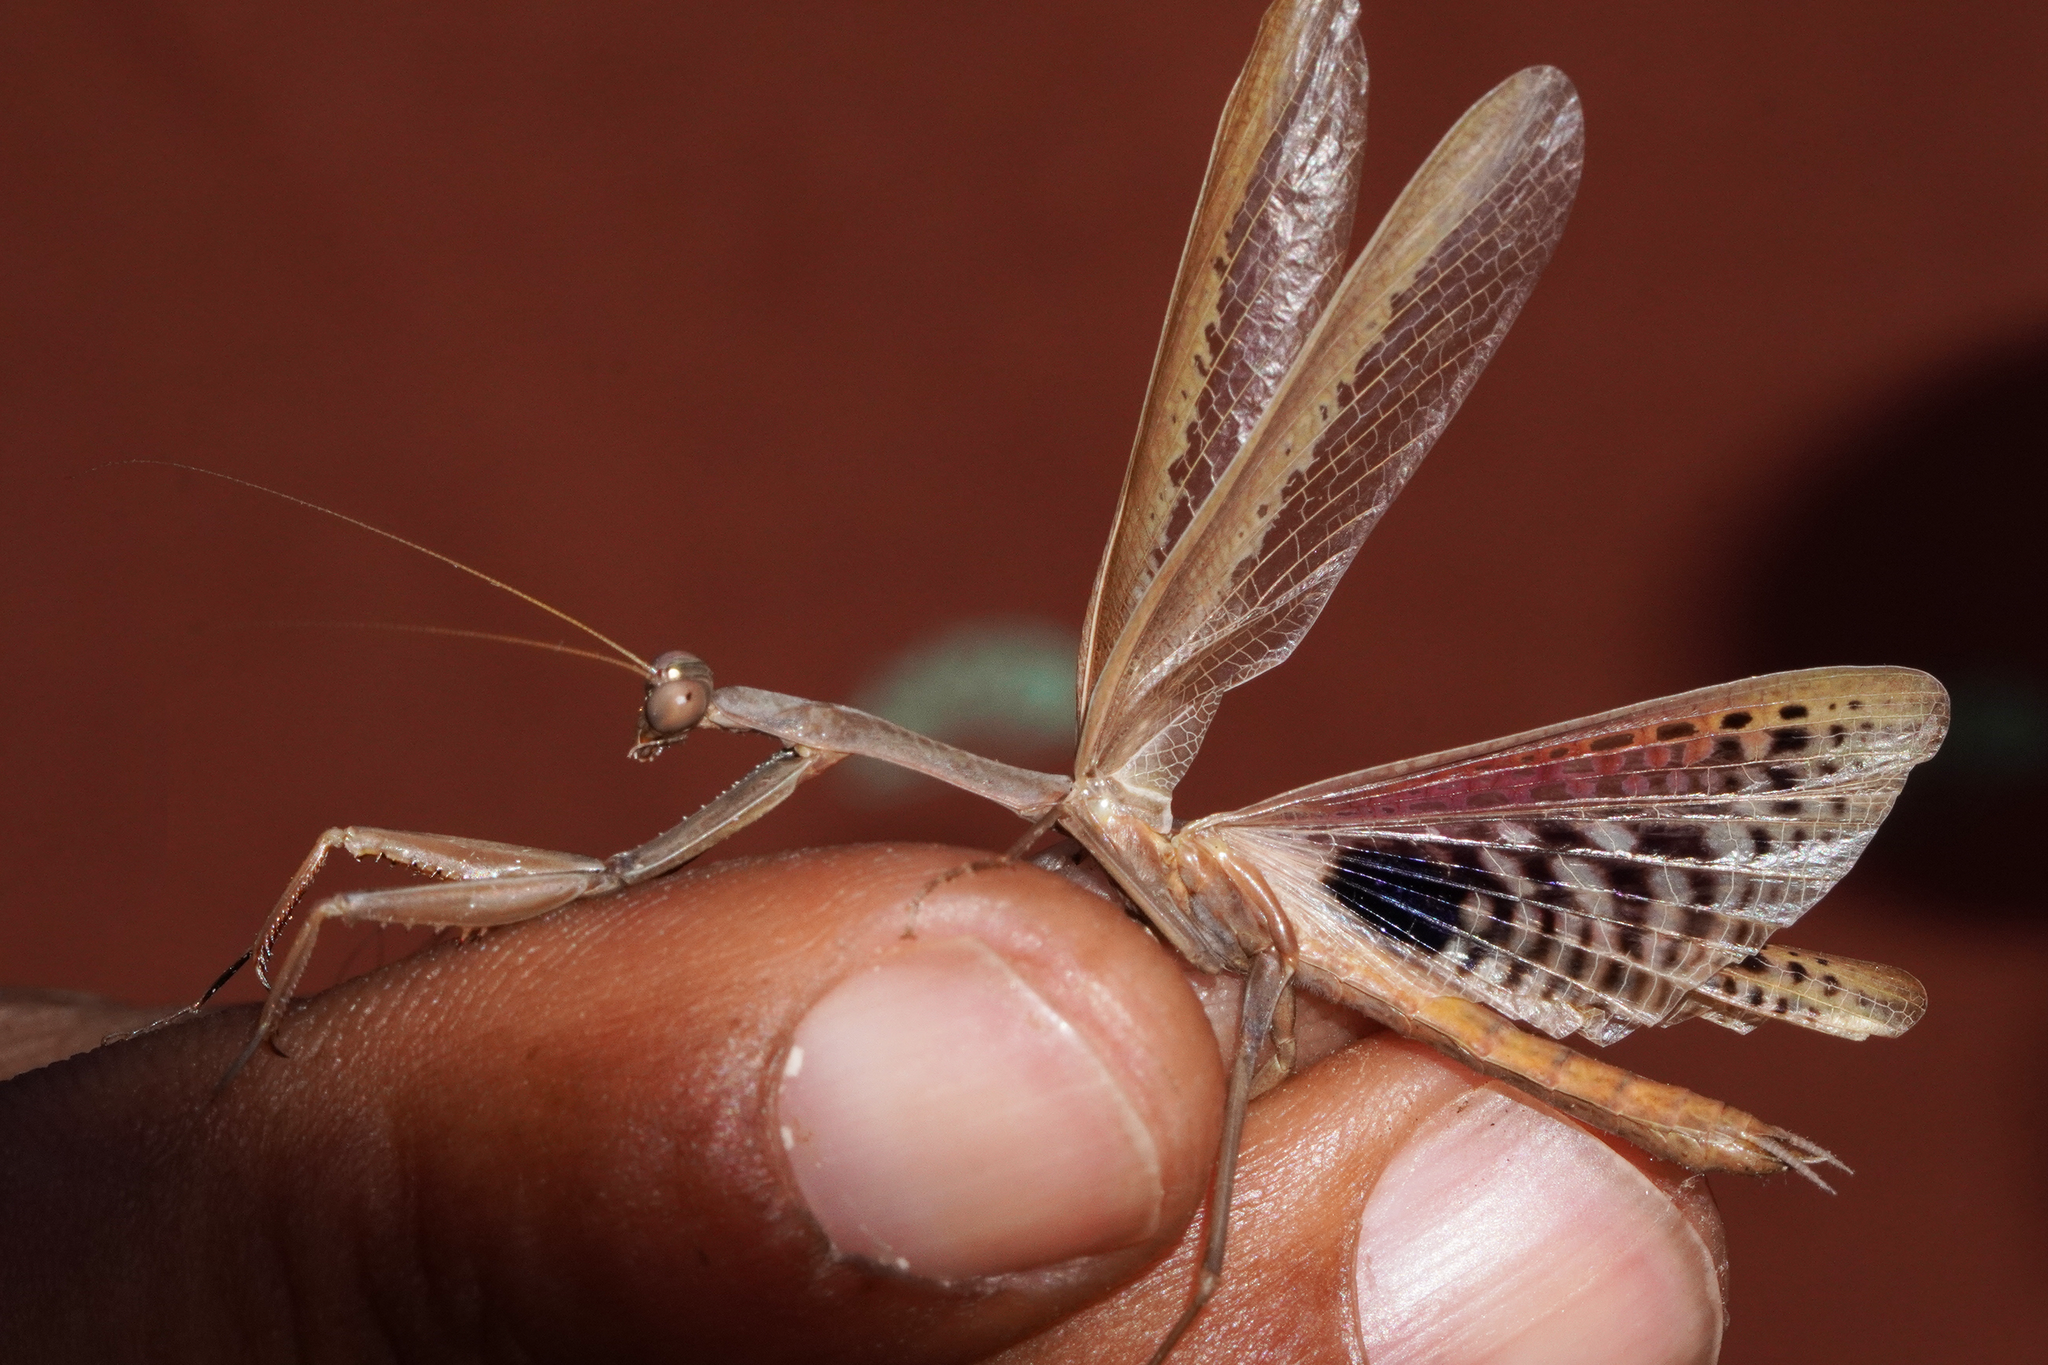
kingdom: Animalia
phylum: Arthropoda
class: Insecta
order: Mantodea
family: Eremiaphilidae
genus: Iris
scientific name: Iris oratoria
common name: Mediterranean mantis
